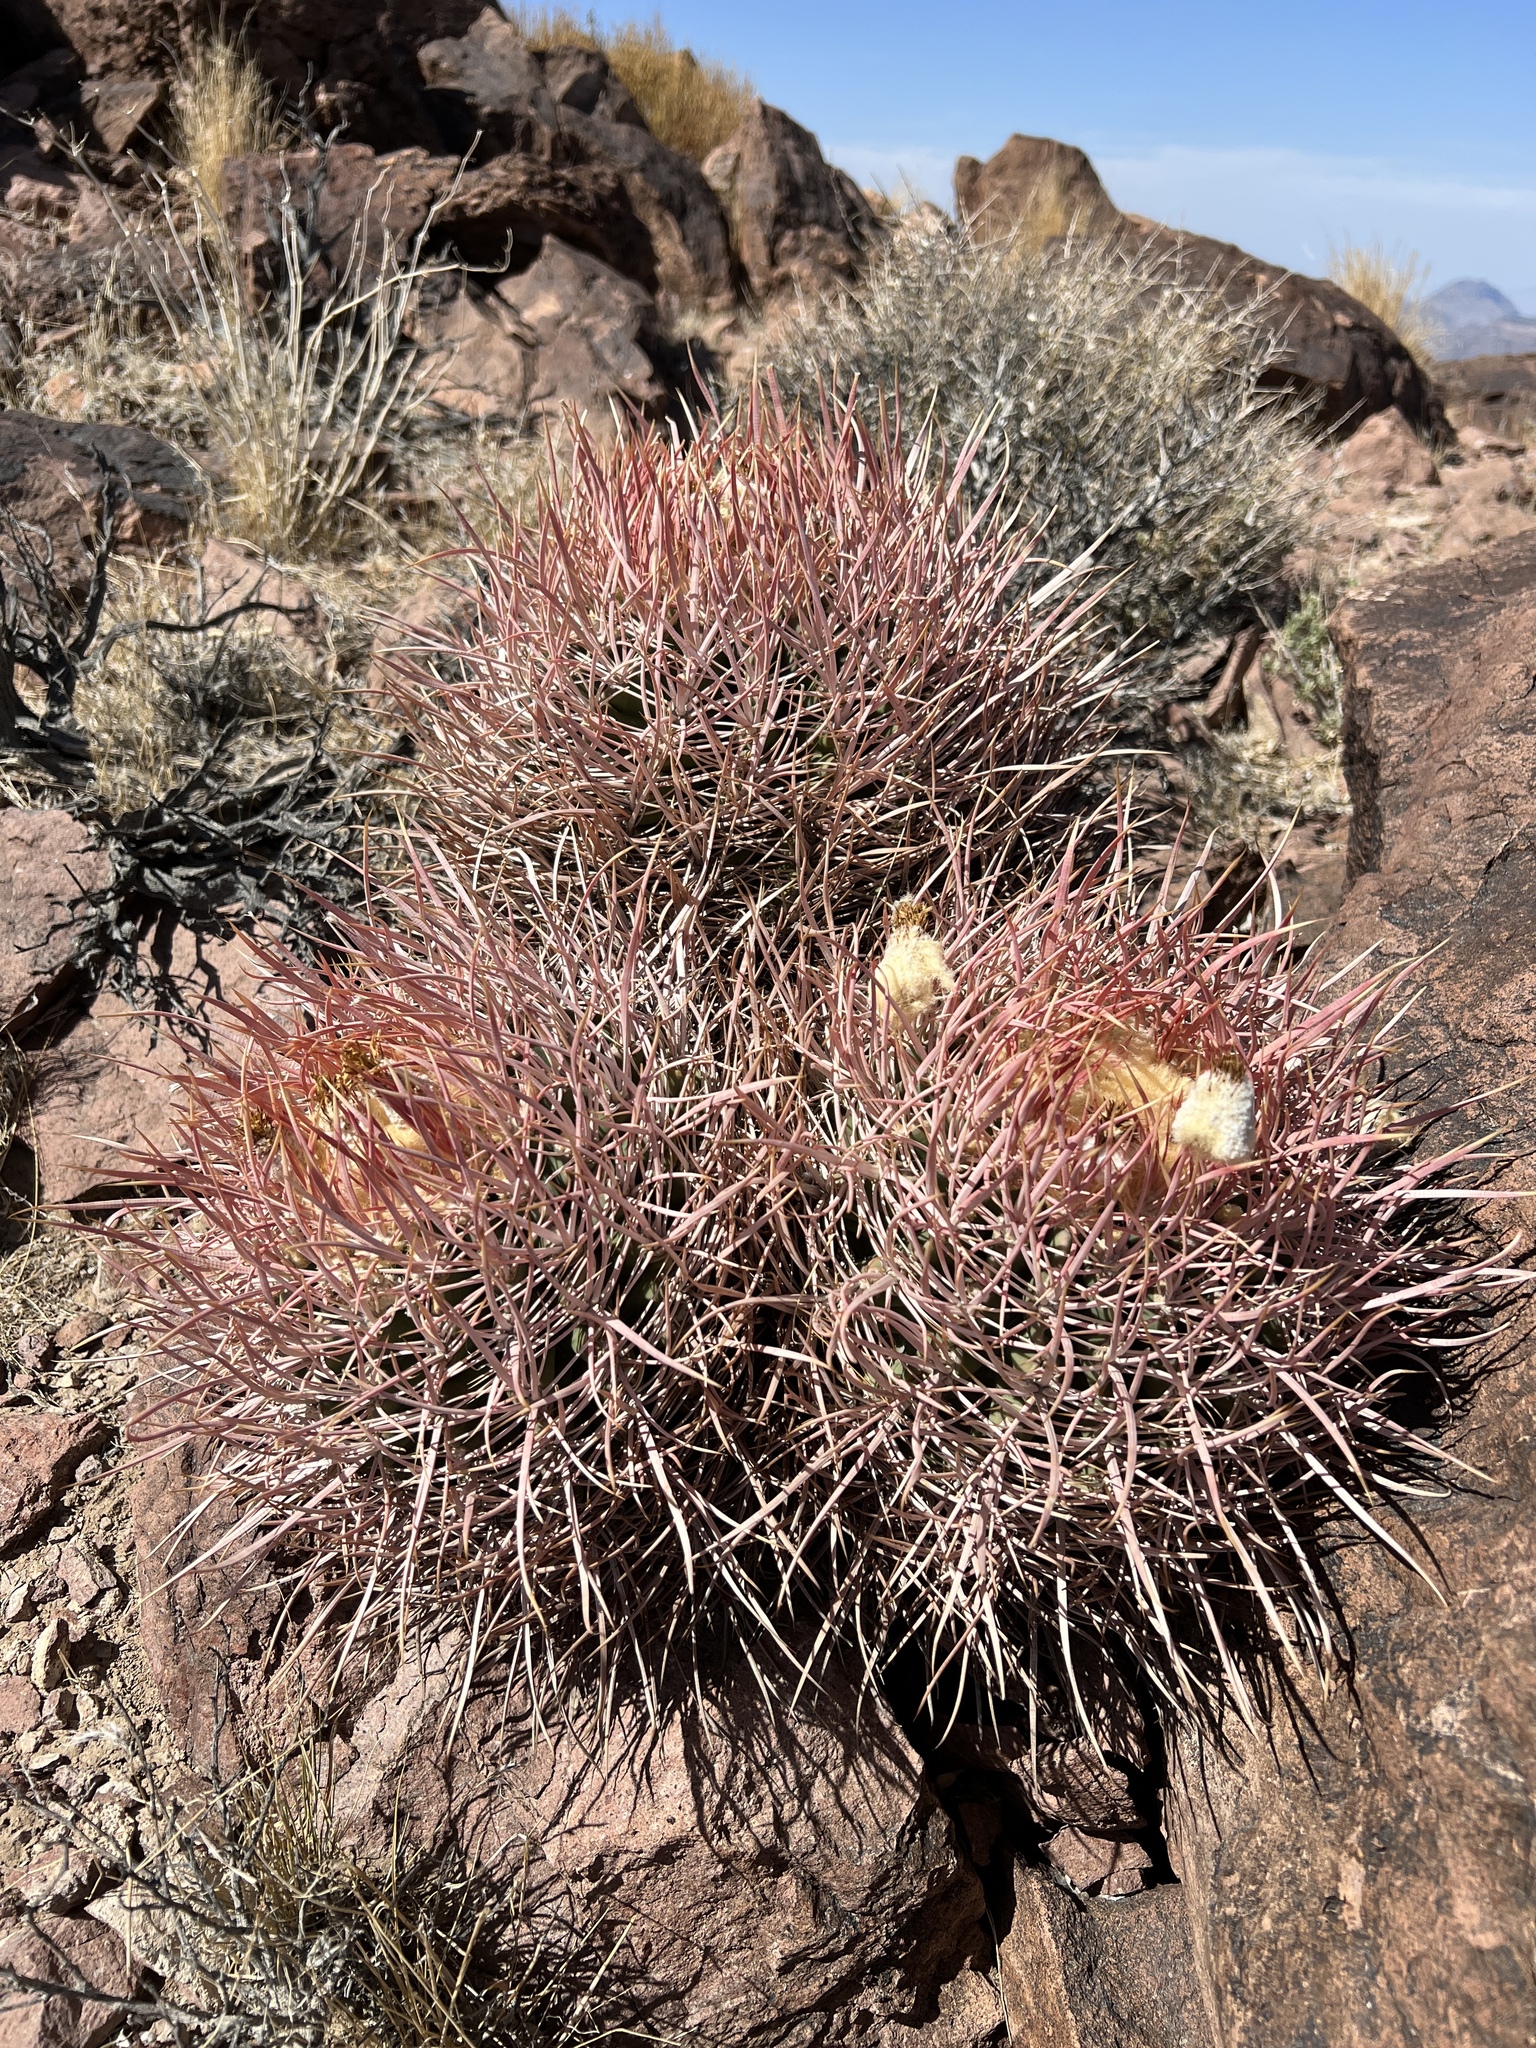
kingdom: Plantae
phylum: Tracheophyta
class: Magnoliopsida
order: Caryophyllales
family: Cactaceae
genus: Echinocactus
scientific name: Echinocactus polycephalus
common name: Cottontop cactus
